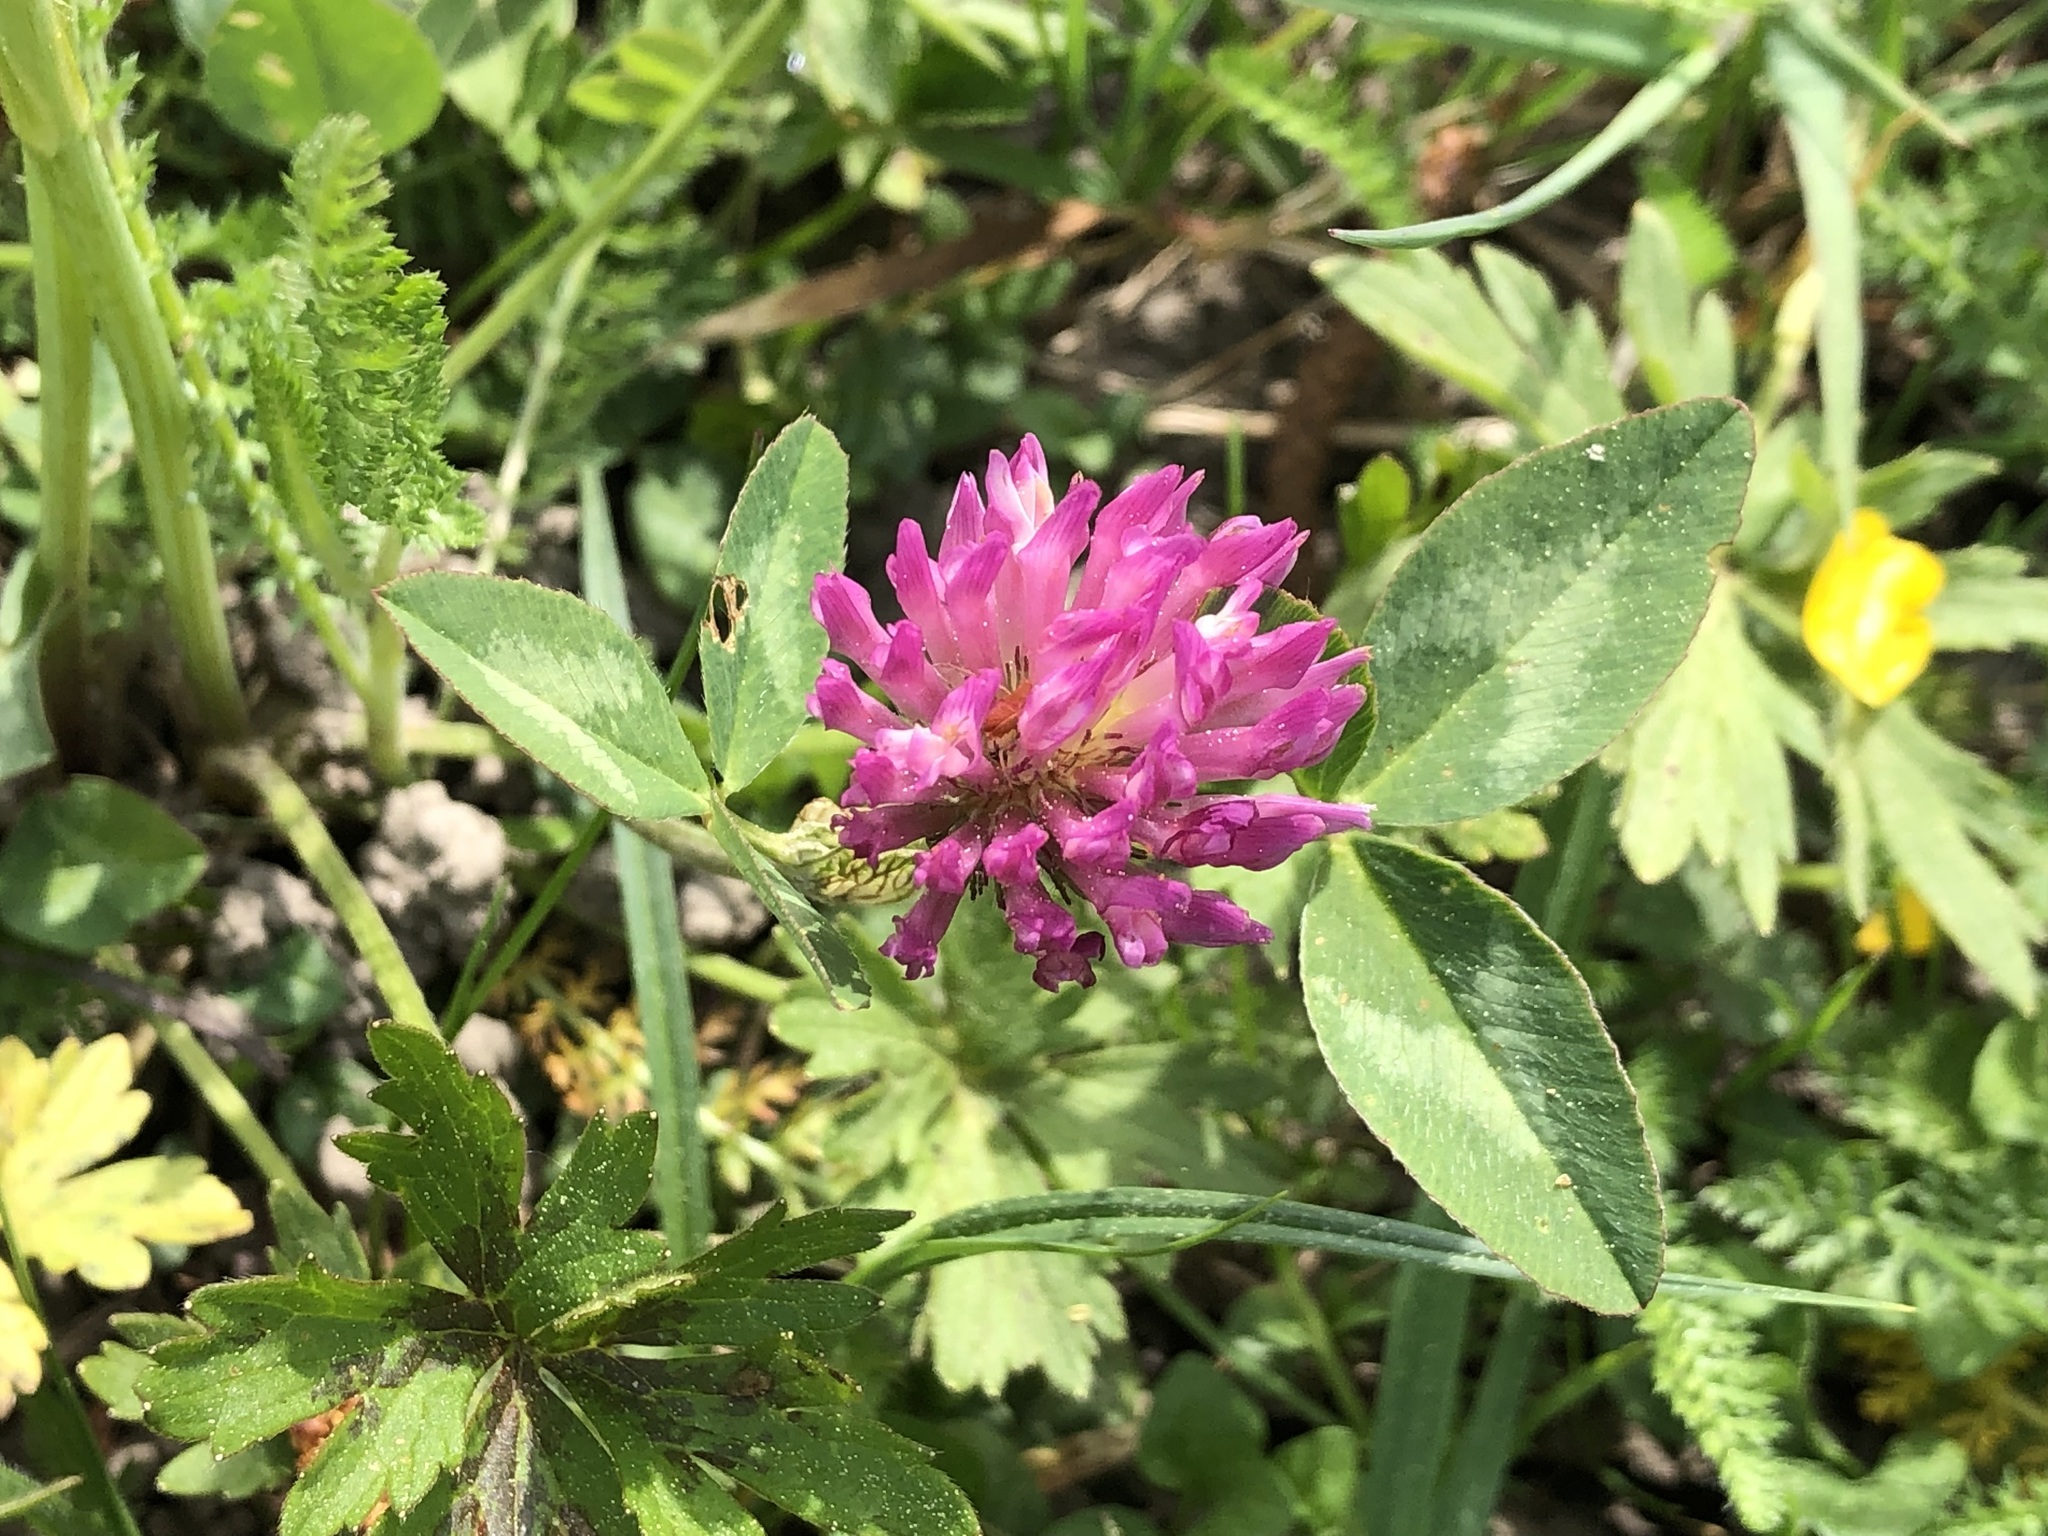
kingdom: Plantae
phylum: Tracheophyta
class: Magnoliopsida
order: Fabales
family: Fabaceae
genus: Trifolium
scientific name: Trifolium pratense
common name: Red clover
